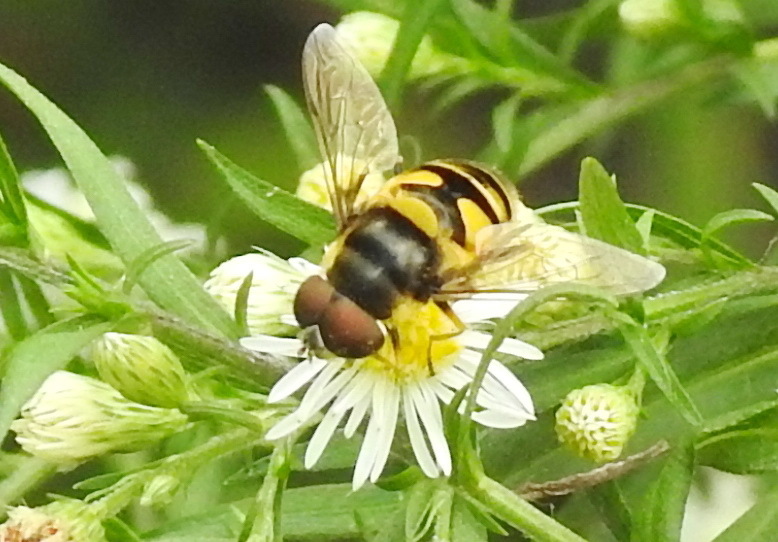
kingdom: Animalia
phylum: Arthropoda
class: Insecta
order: Diptera
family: Syrphidae
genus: Eristalis
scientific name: Eristalis transversa
